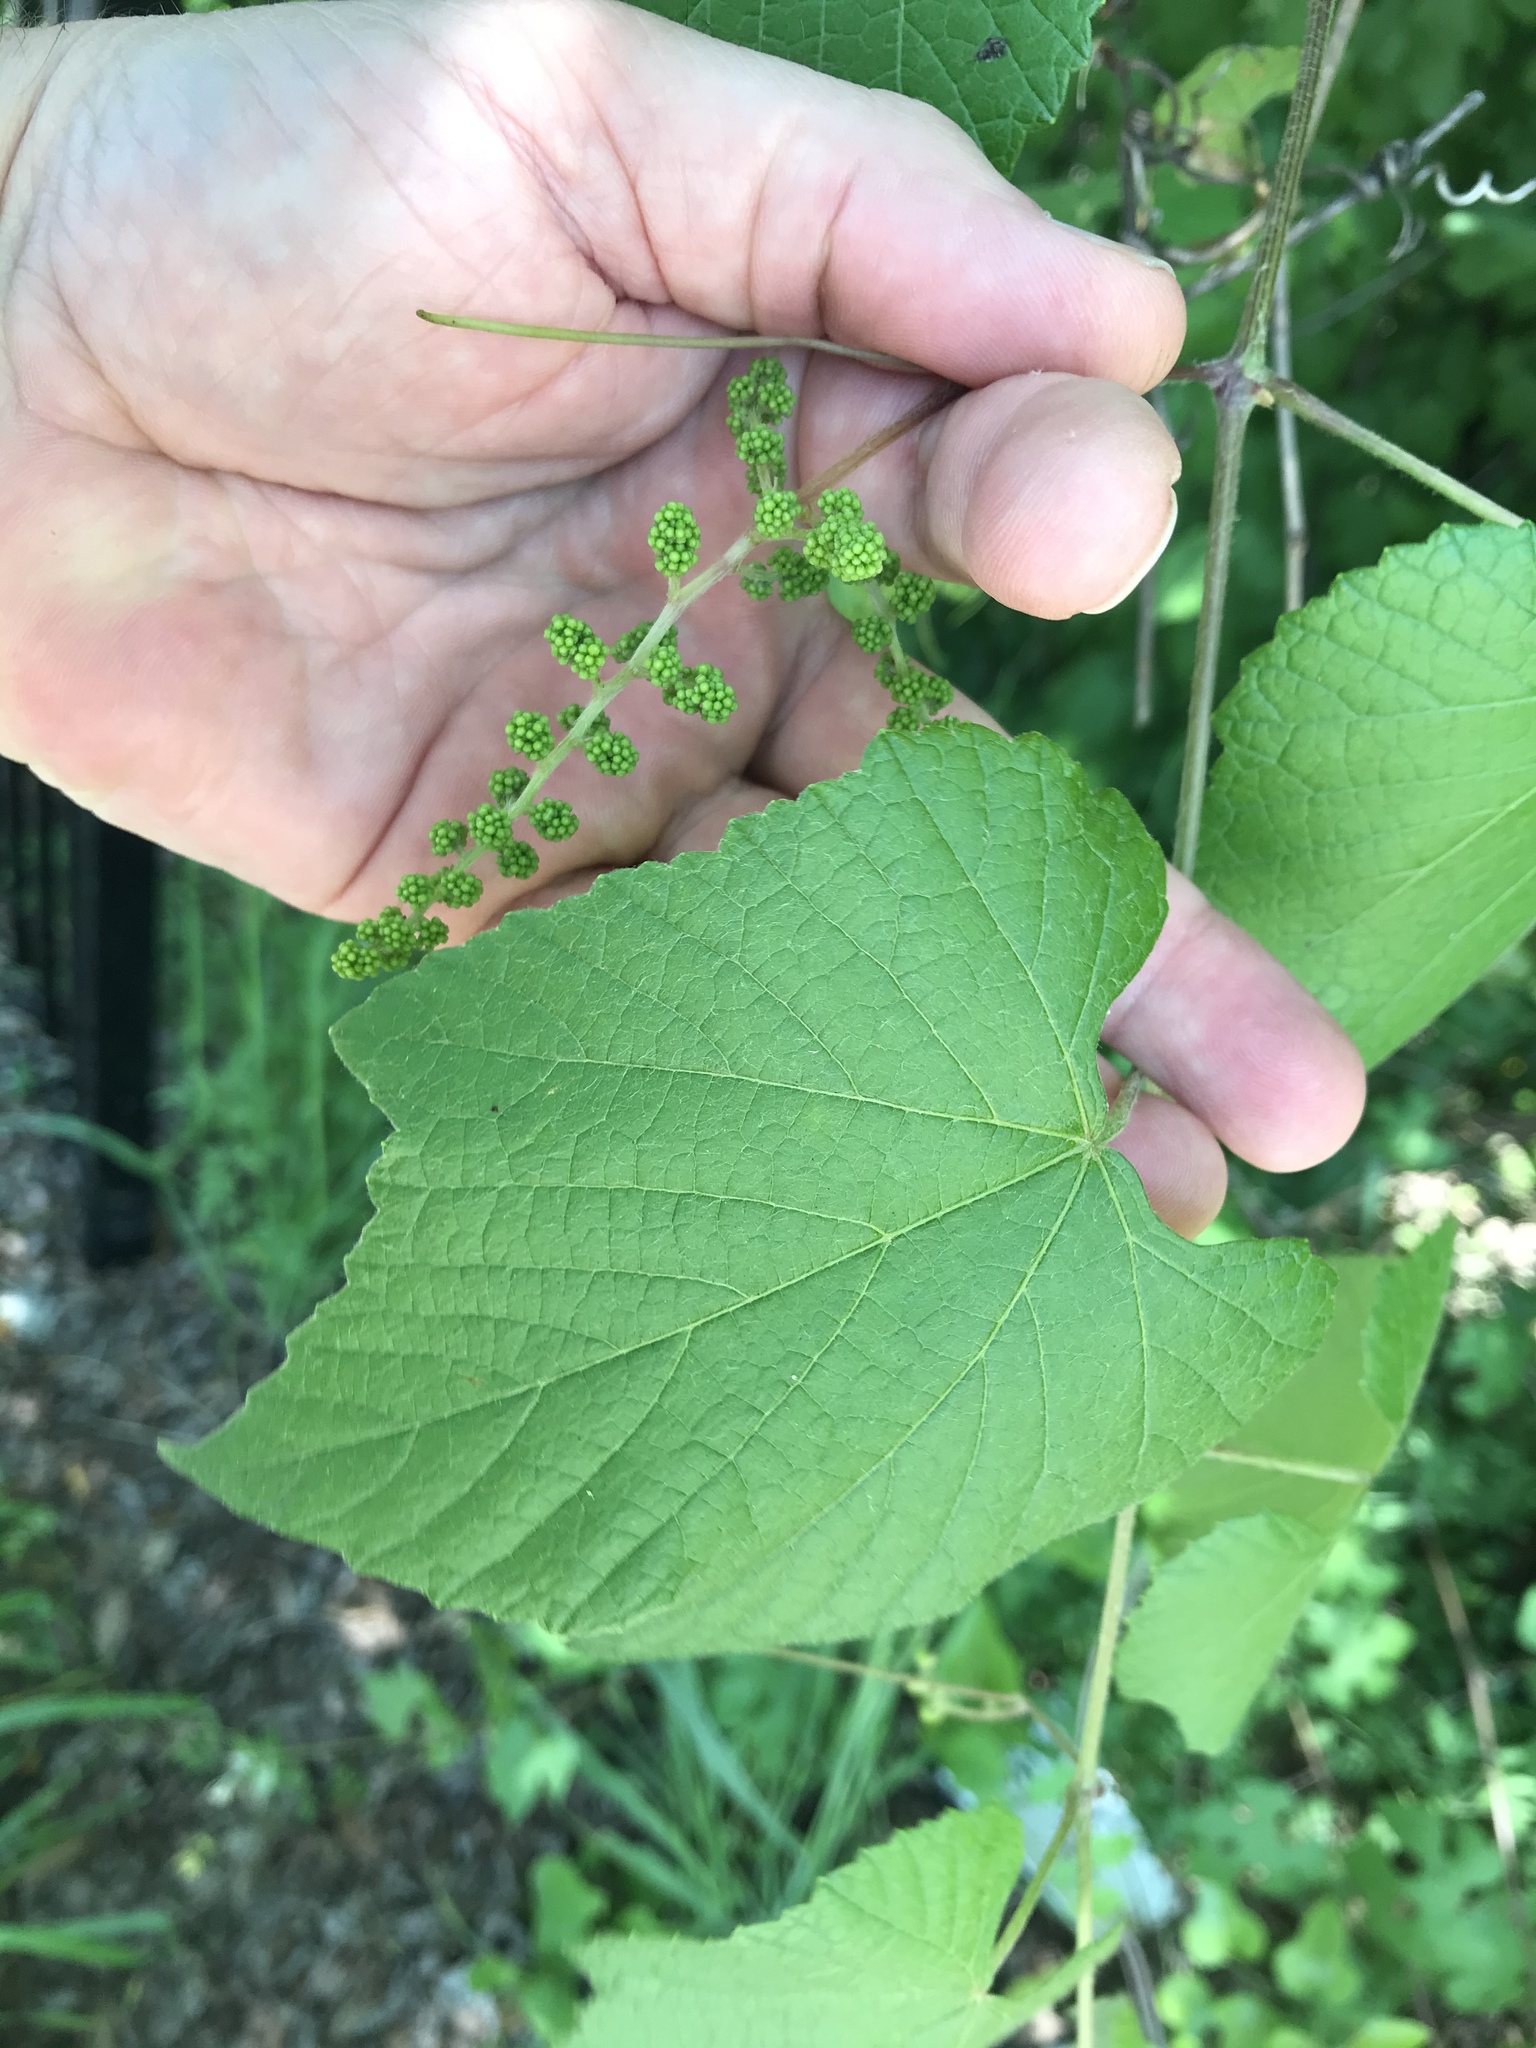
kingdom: Plantae
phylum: Tracheophyta
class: Magnoliopsida
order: Vitales
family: Vitaceae
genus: Vitis
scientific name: Vitis mustangensis
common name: Mustang grape
